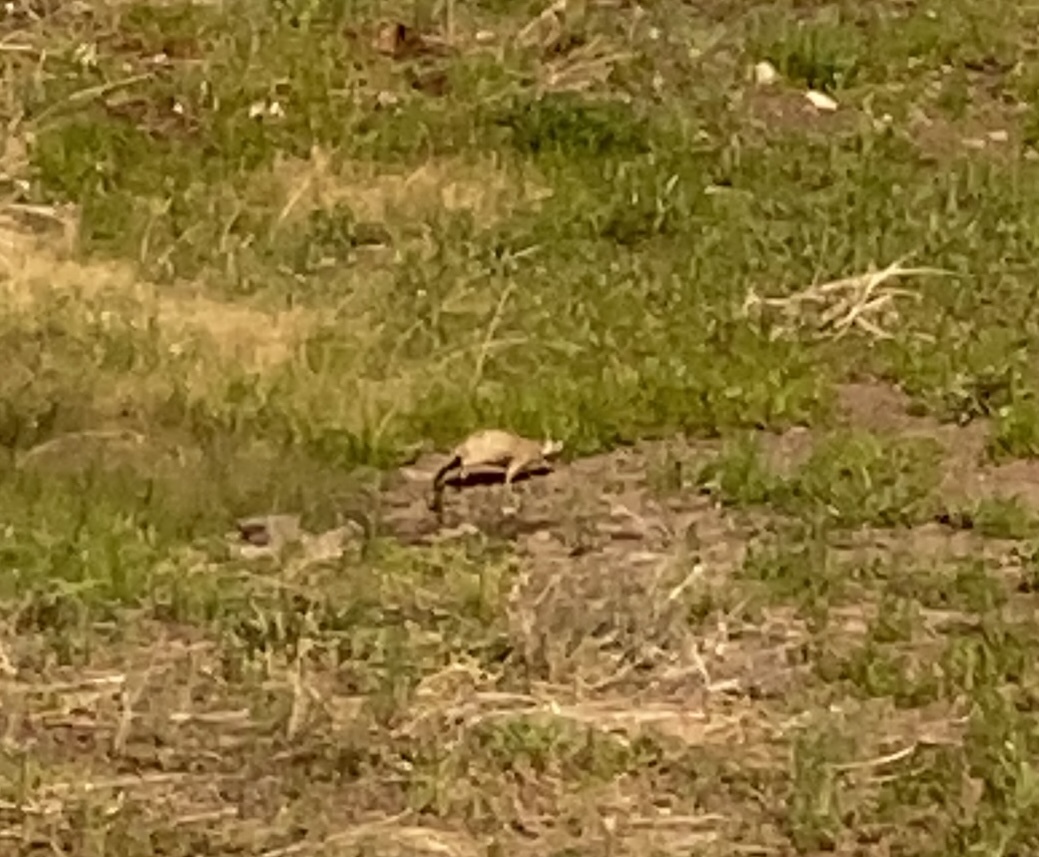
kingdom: Animalia
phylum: Chordata
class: Mammalia
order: Rodentia
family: Sciuridae
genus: Cynomys
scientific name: Cynomys gunnisoni
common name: Gunnison's prairie dog
